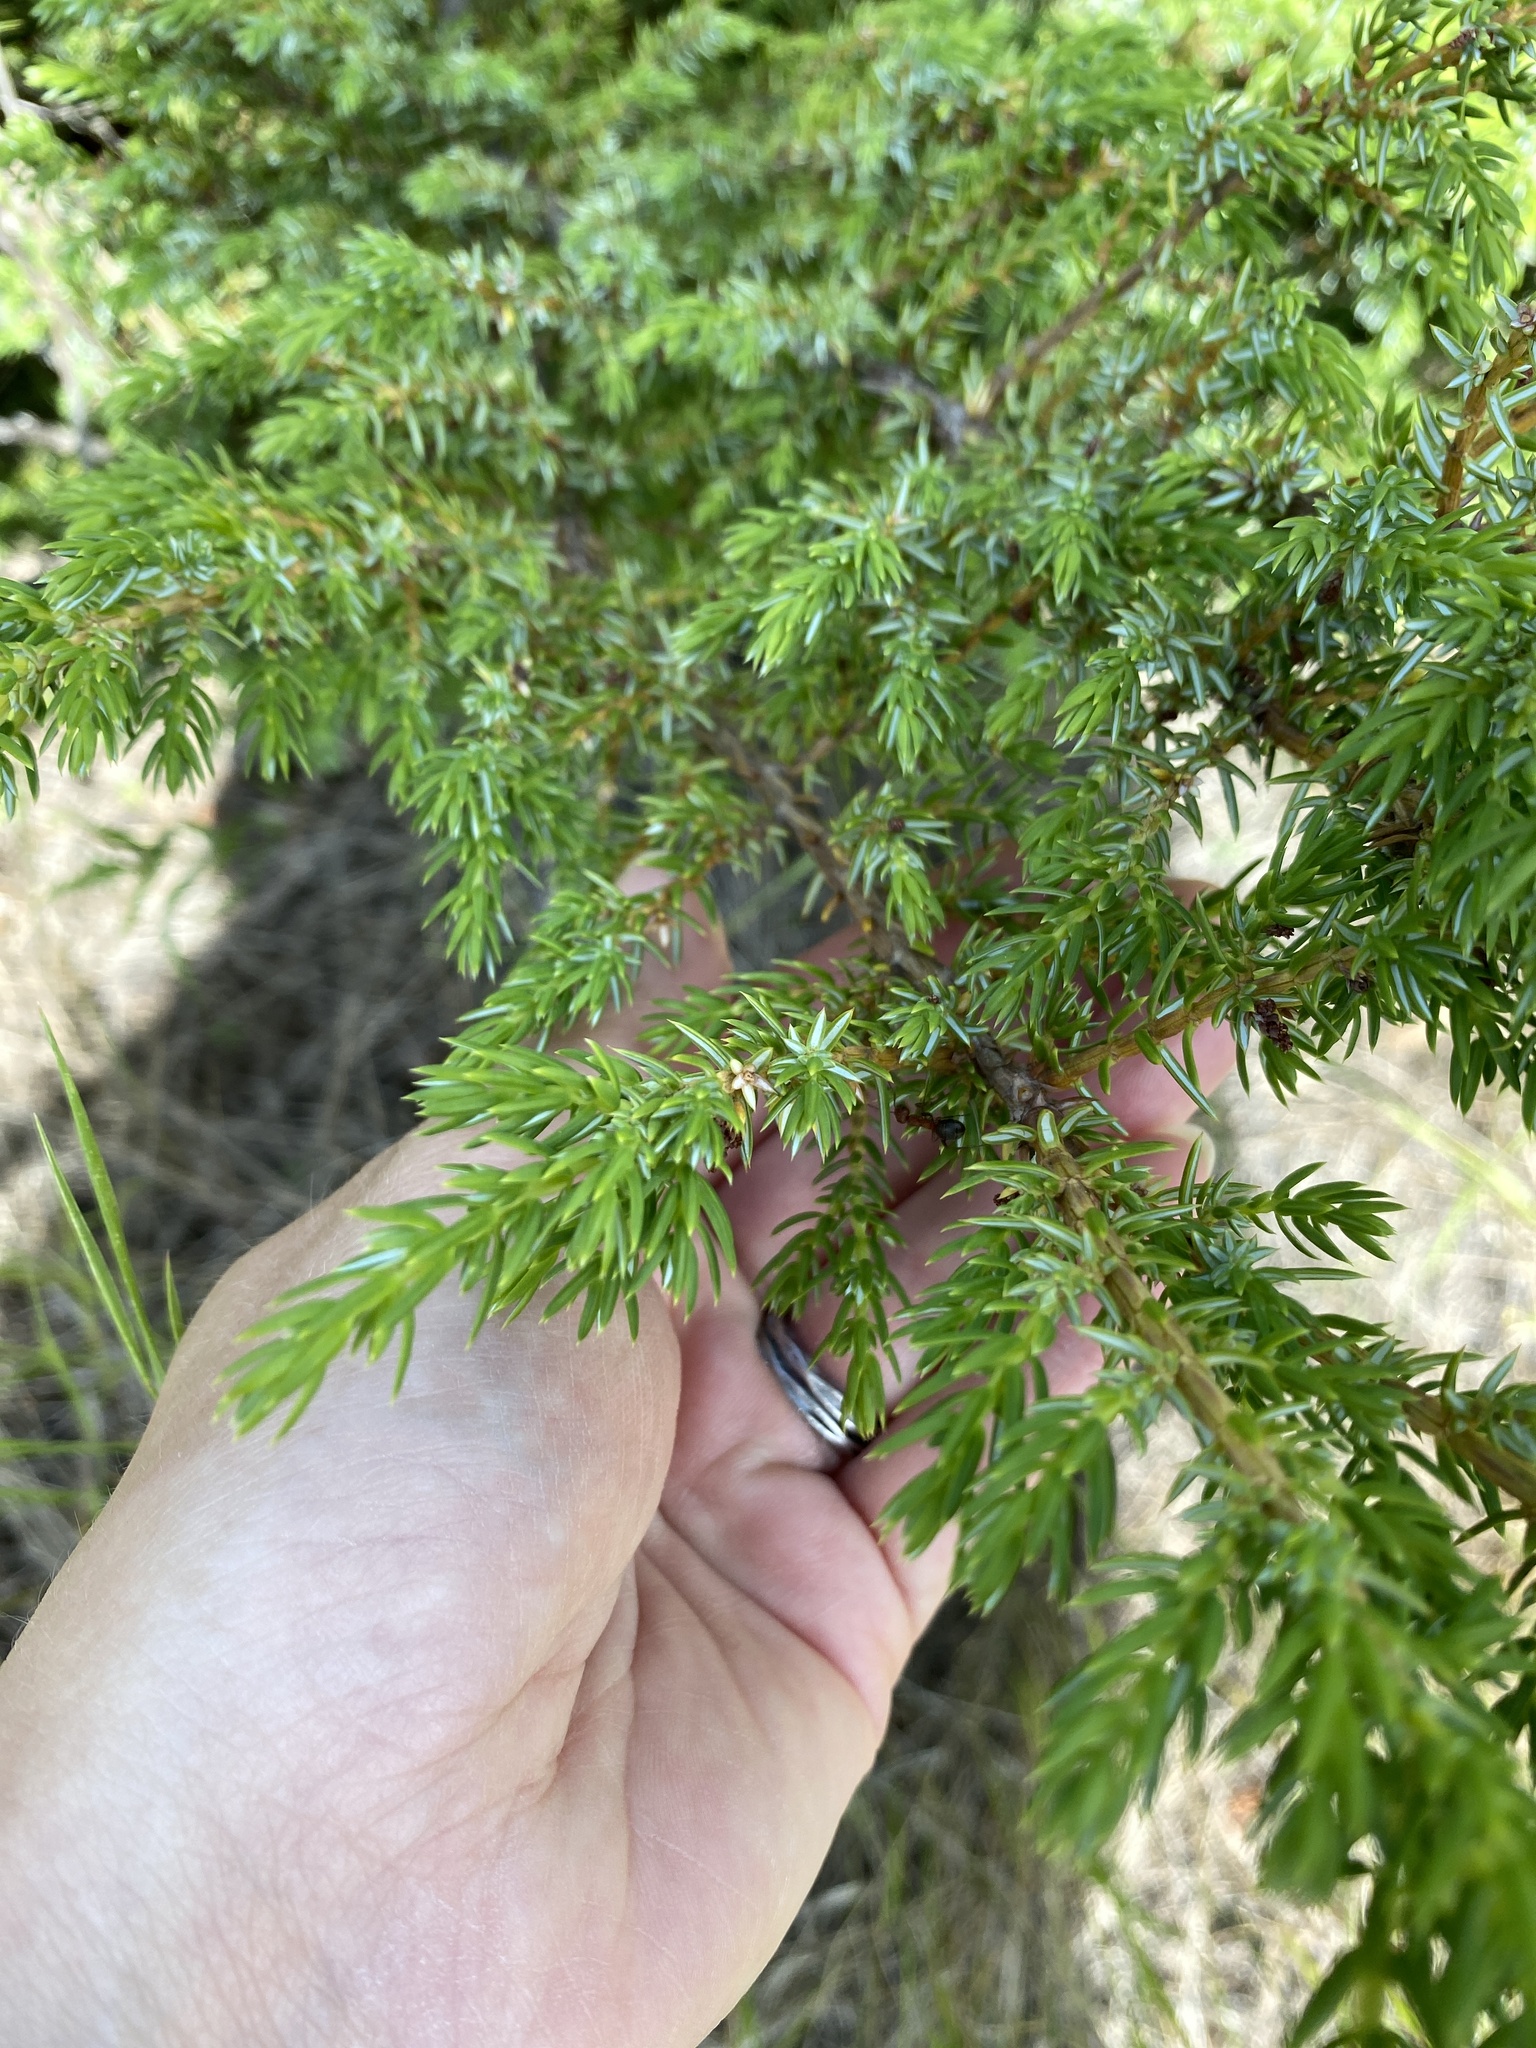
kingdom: Plantae
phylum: Tracheophyta
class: Pinopsida
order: Pinales
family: Cupressaceae
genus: Juniperus
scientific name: Juniperus communis
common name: Common juniper
